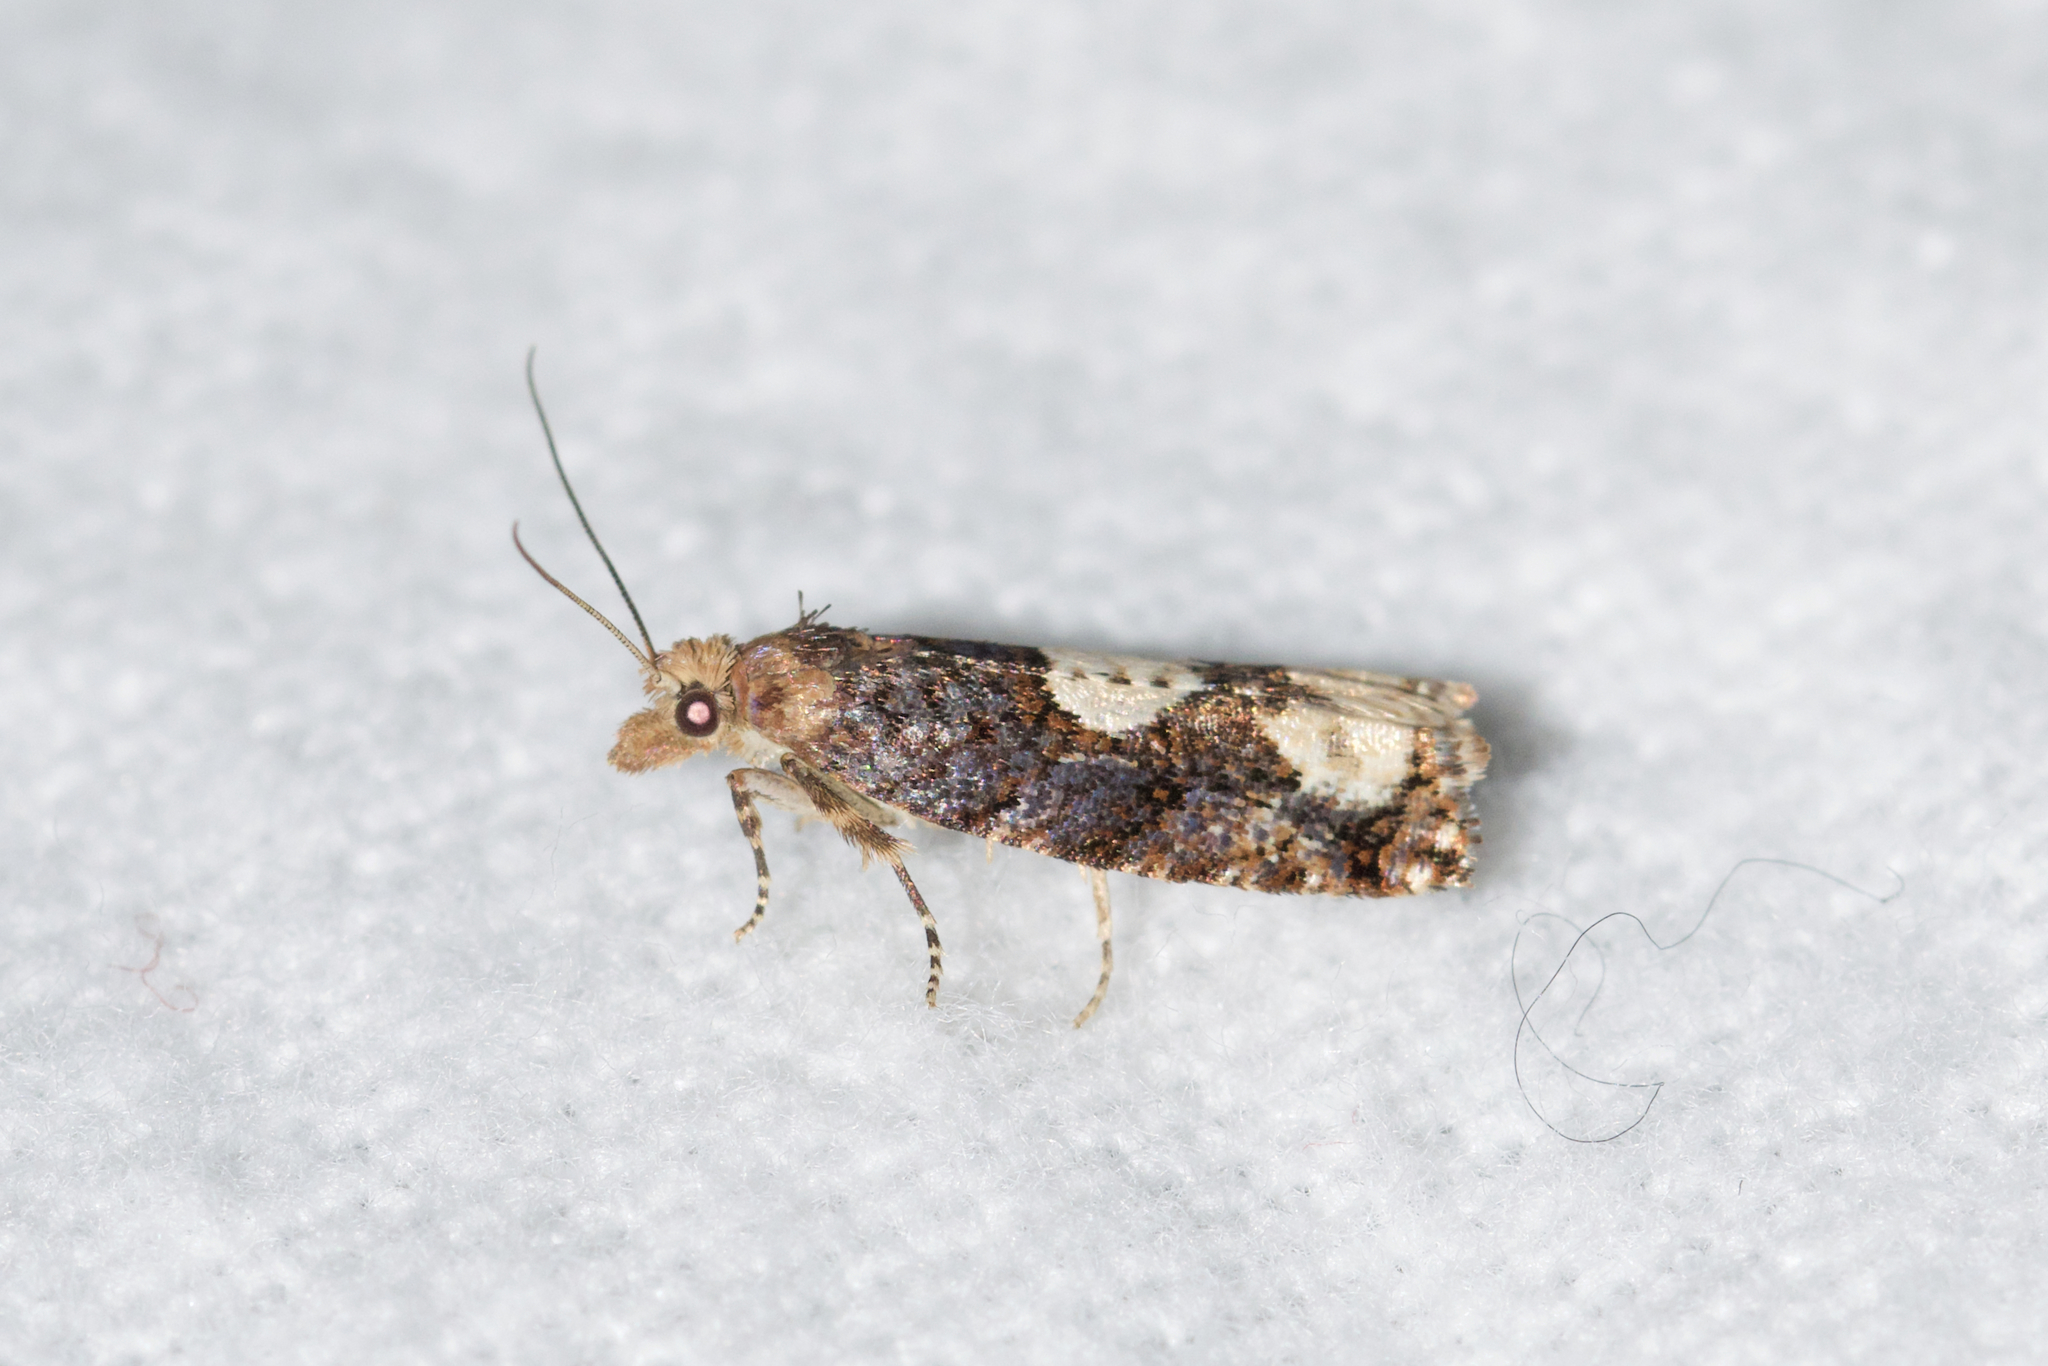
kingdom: Animalia
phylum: Arthropoda
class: Insecta
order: Lepidoptera
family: Tortricidae
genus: Epinotia
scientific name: Epinotia trigonella
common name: White-blotch bell
